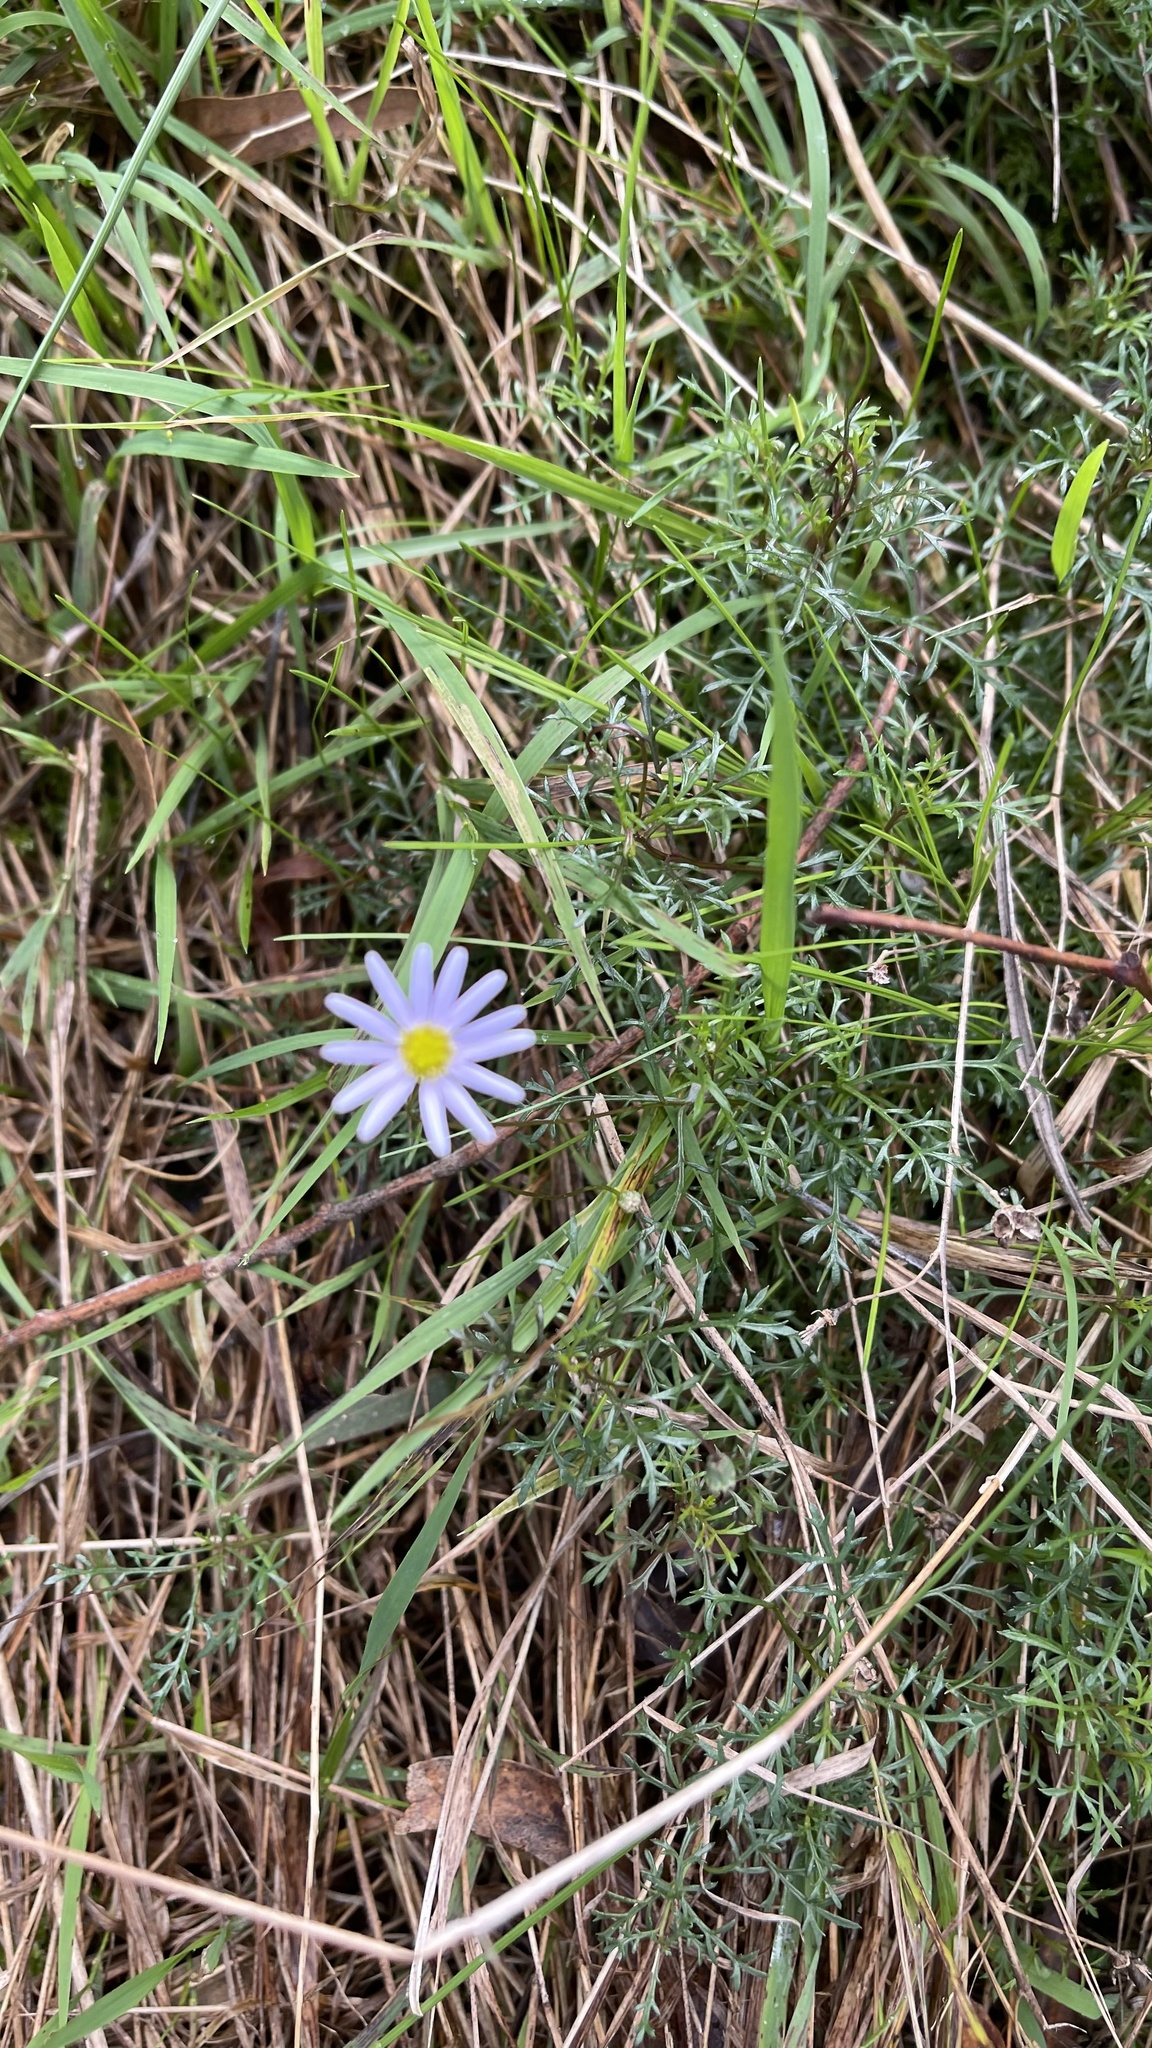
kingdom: Plantae
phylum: Tracheophyta
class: Magnoliopsida
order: Asterales
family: Asteraceae
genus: Brachyscome
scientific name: Brachyscome multifida
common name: Cut-leaf daisy
